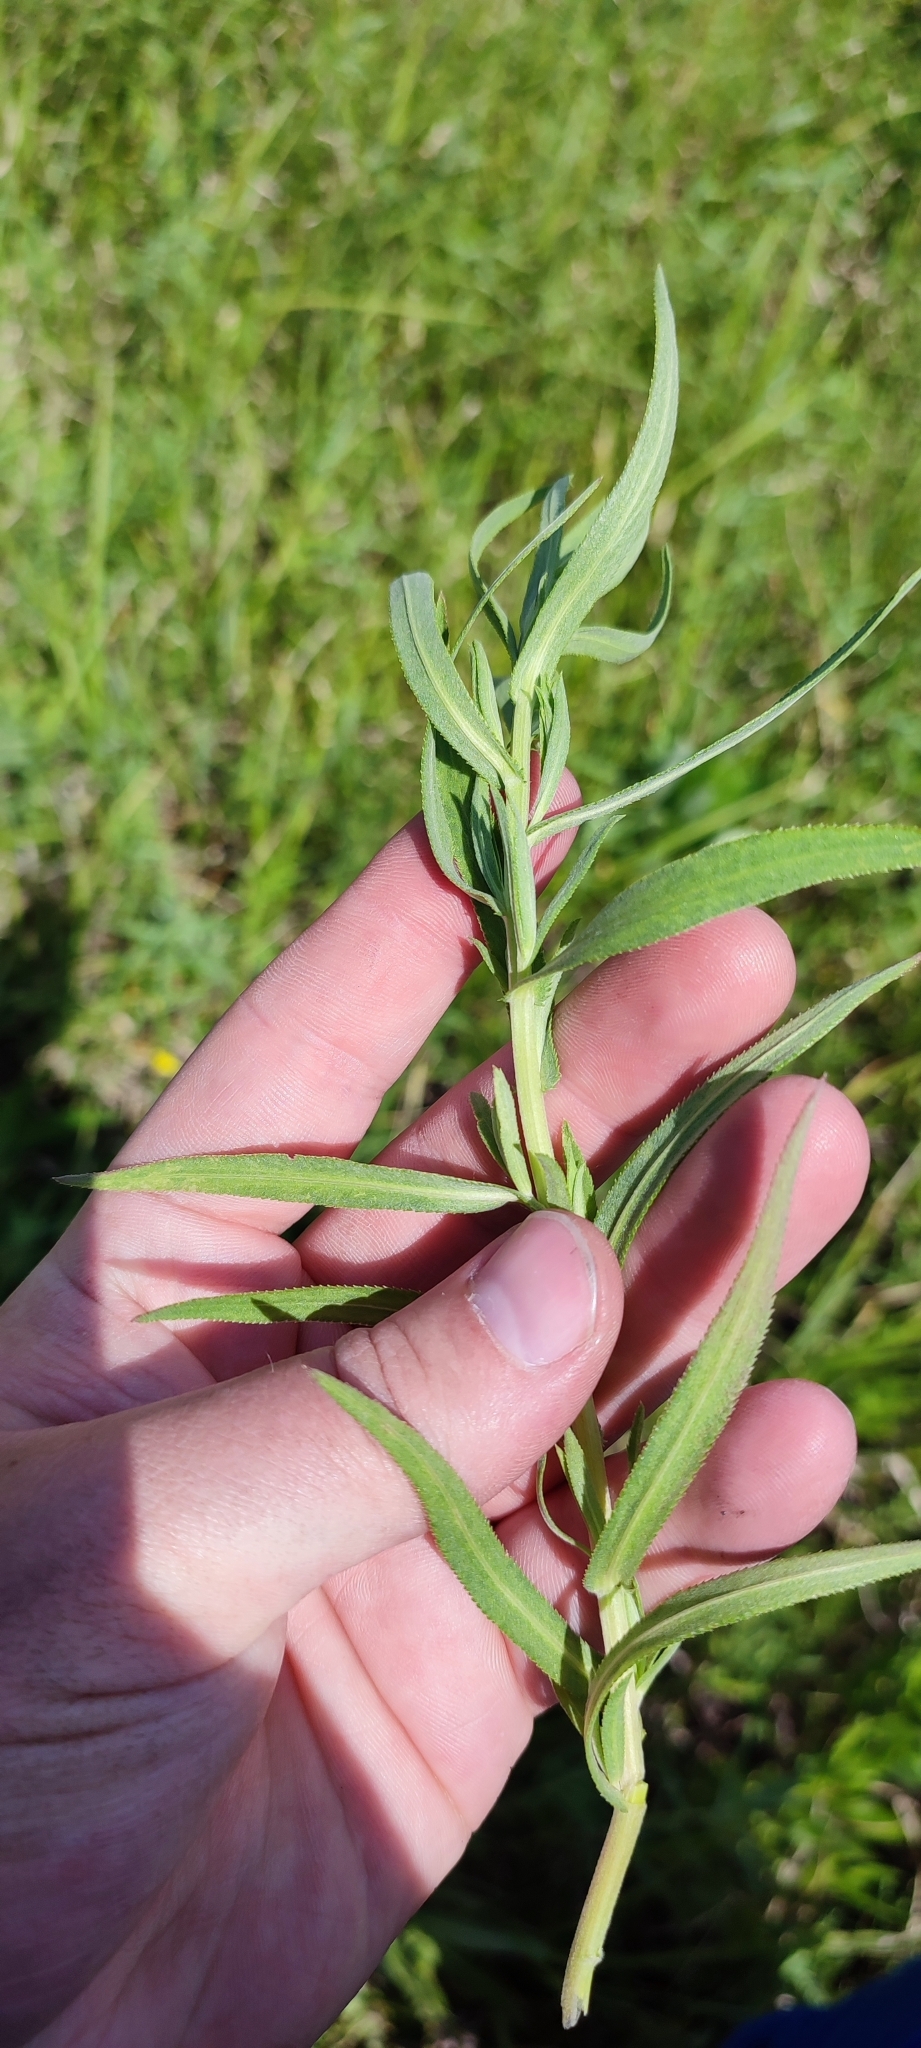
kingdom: Plantae
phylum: Tracheophyta
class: Magnoliopsida
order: Asterales
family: Asteraceae
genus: Achillea
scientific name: Achillea salicifolia
